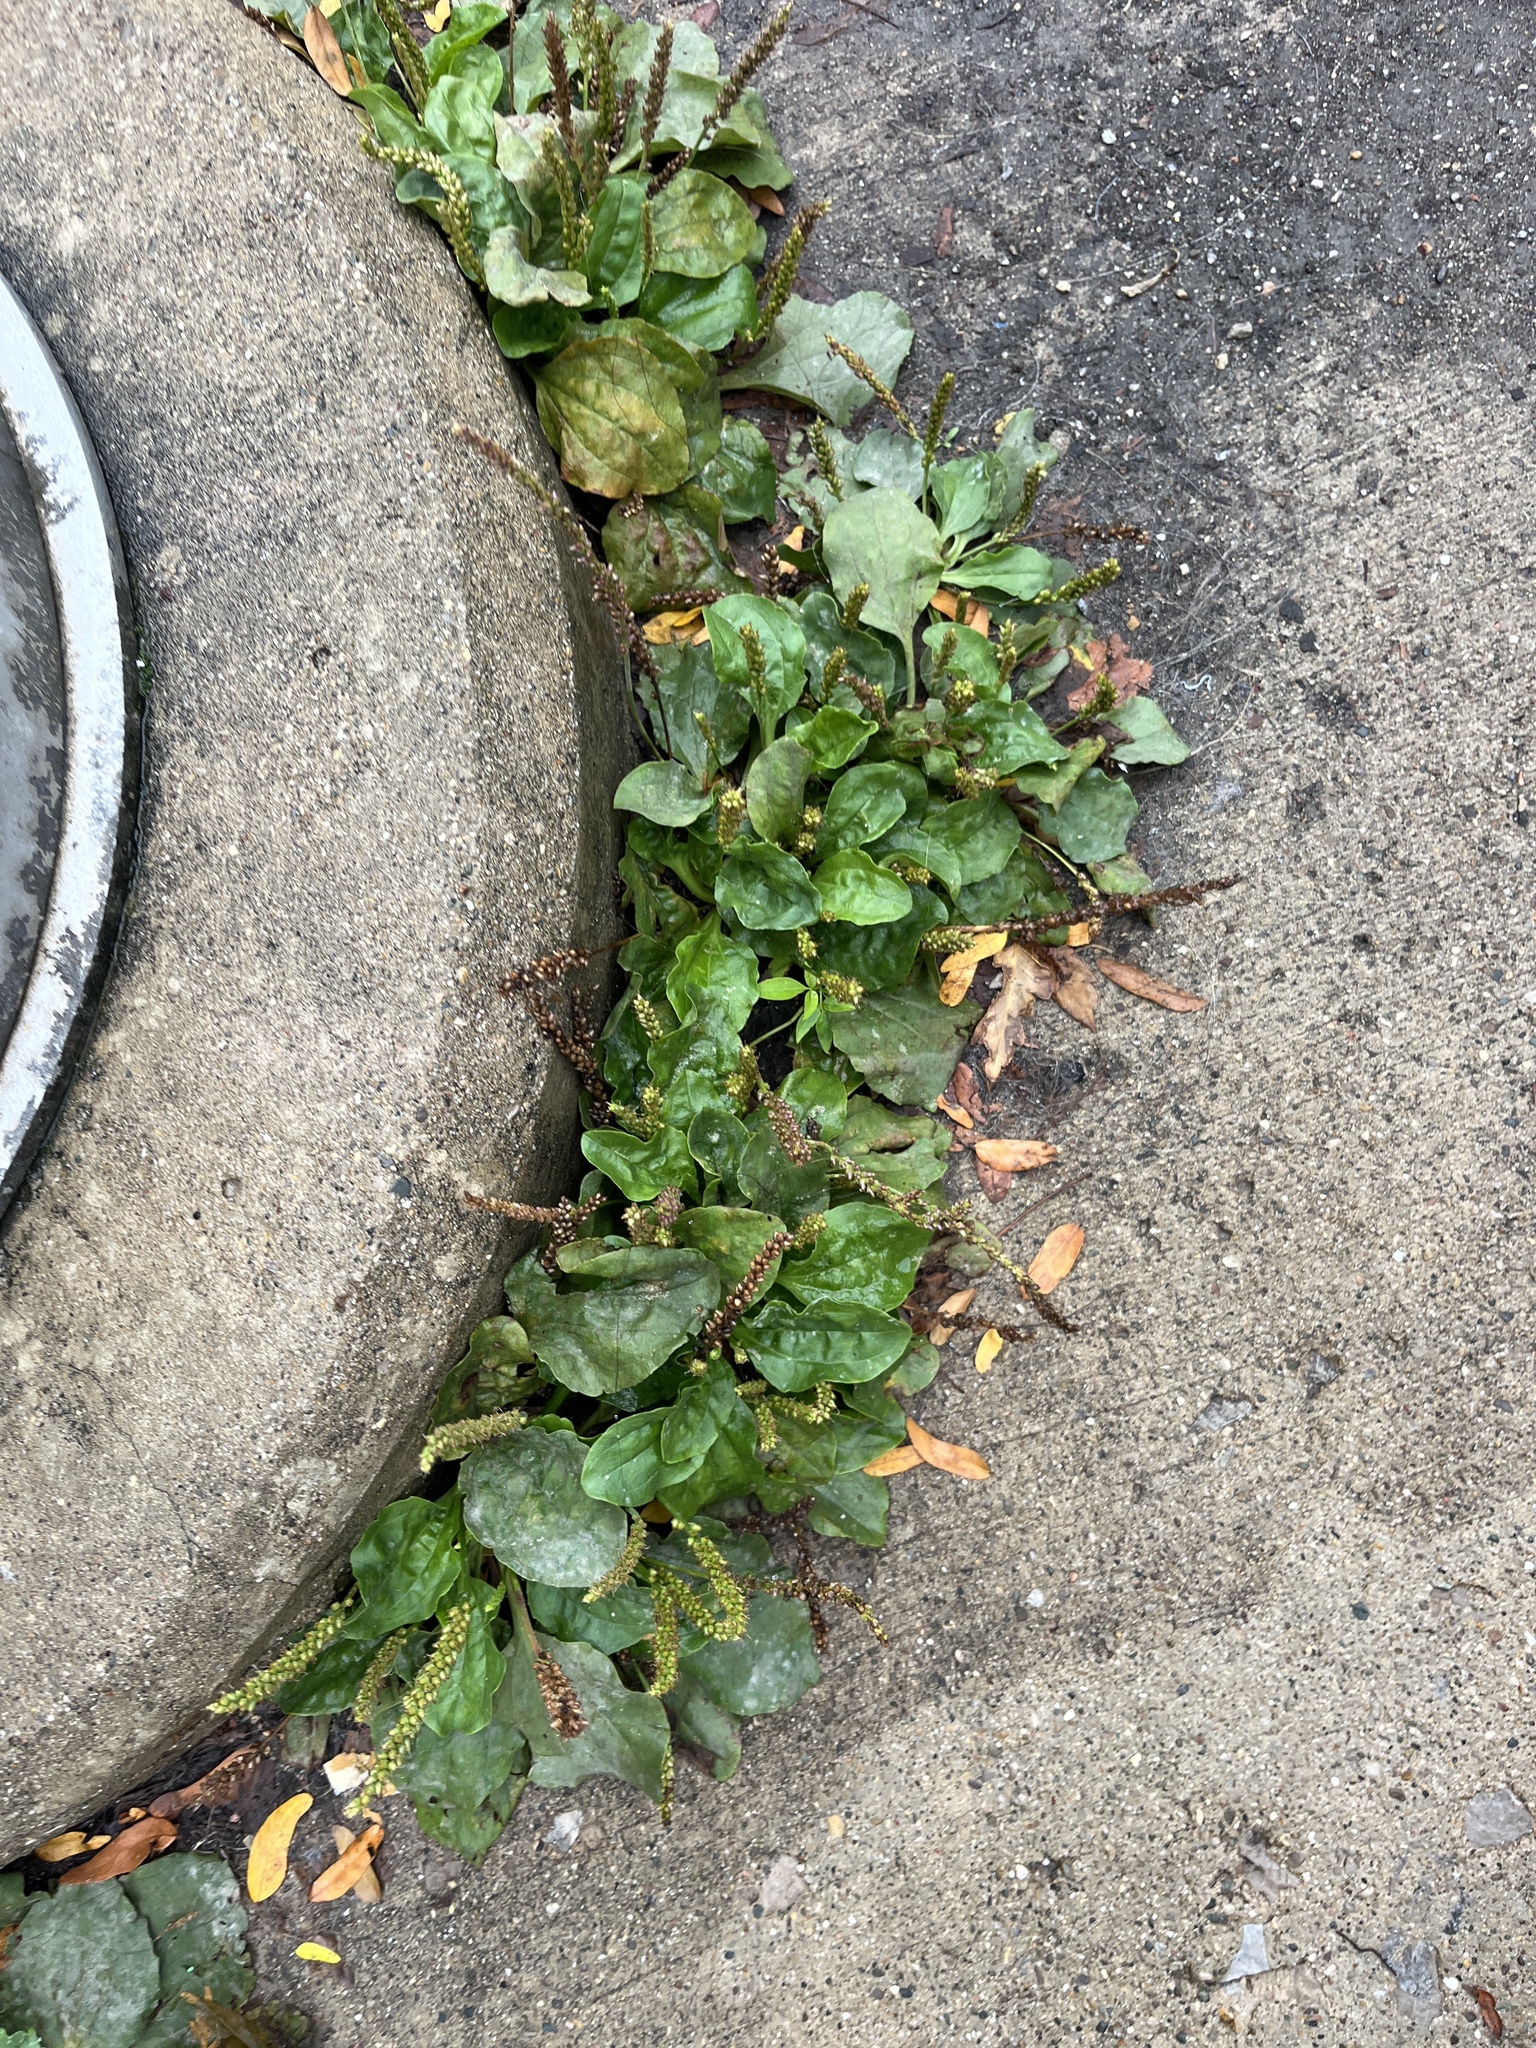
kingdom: Plantae
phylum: Tracheophyta
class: Magnoliopsida
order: Lamiales
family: Plantaginaceae
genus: Plantago
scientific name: Plantago major
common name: Common plantain
